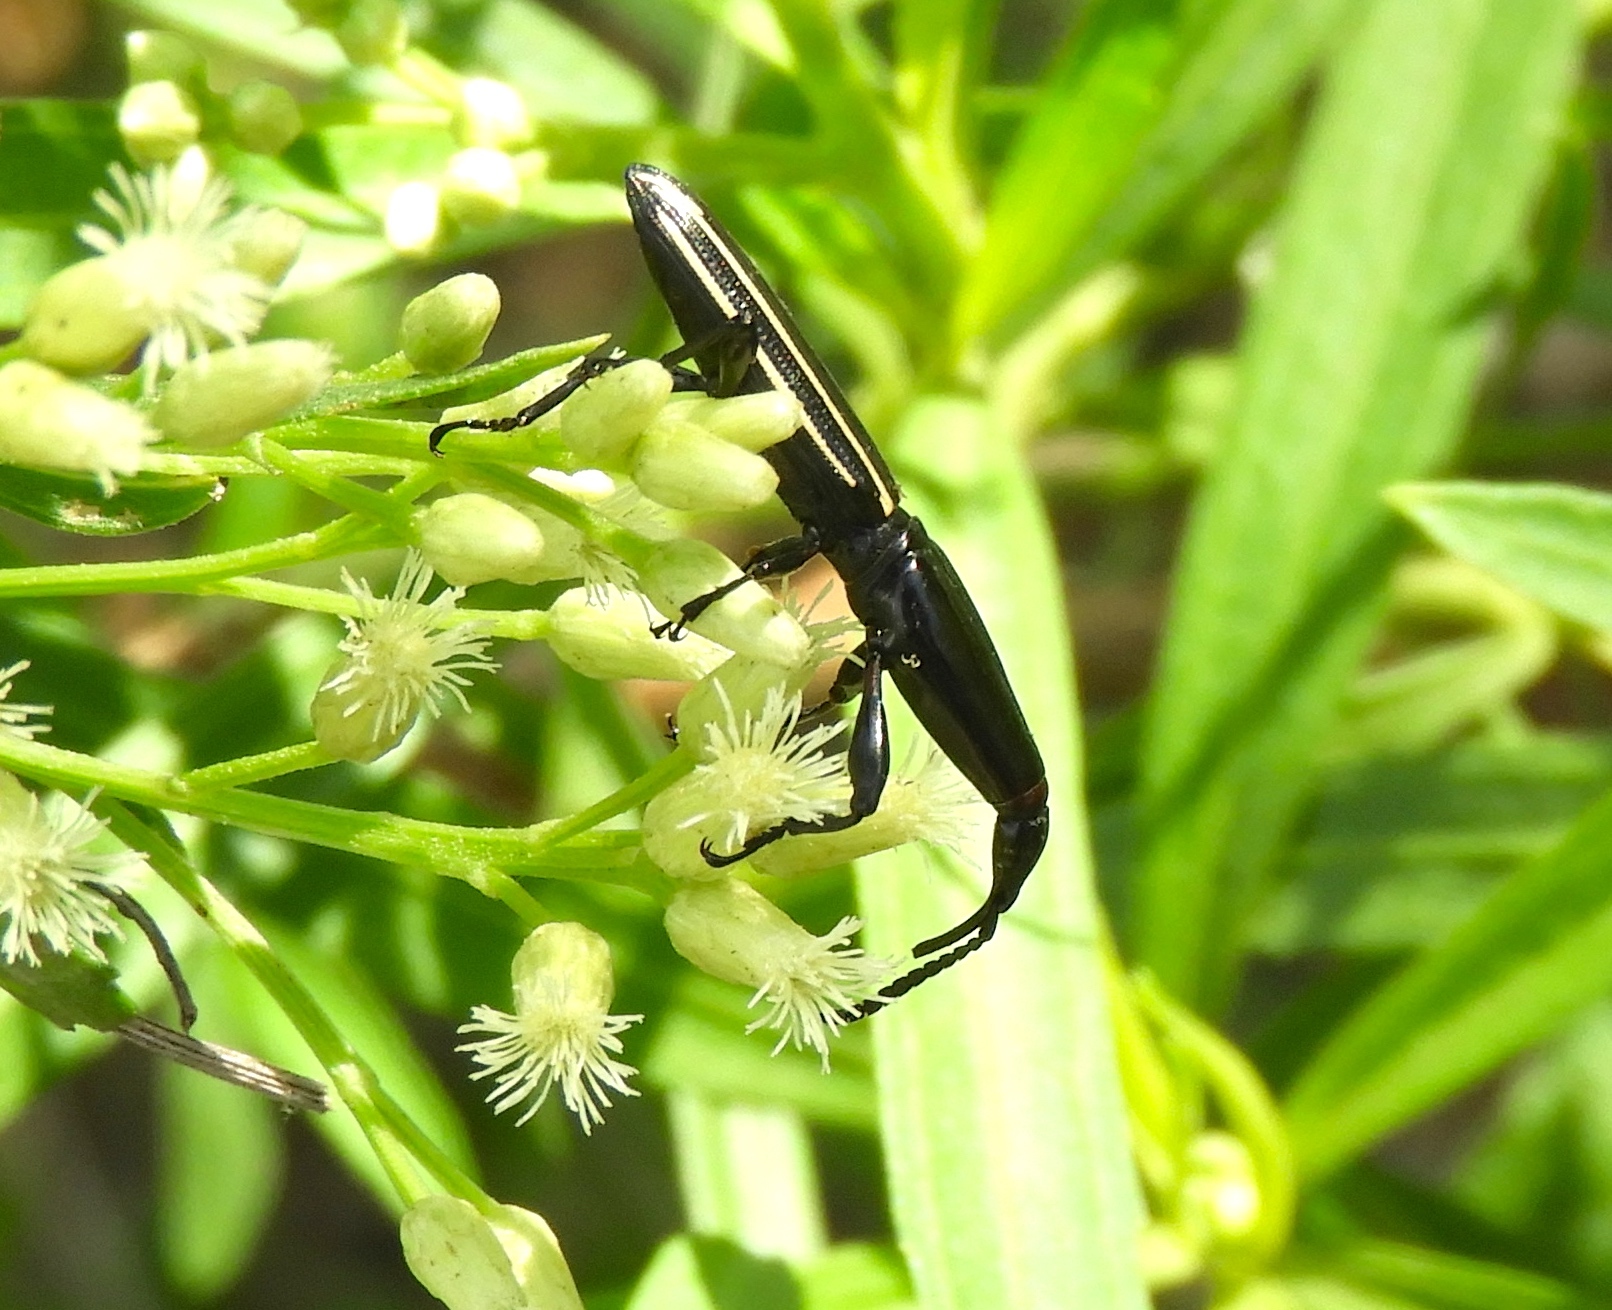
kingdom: Animalia
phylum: Arthropoda
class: Insecta
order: Coleoptera
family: Brentidae
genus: Brentus
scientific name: Brentus
